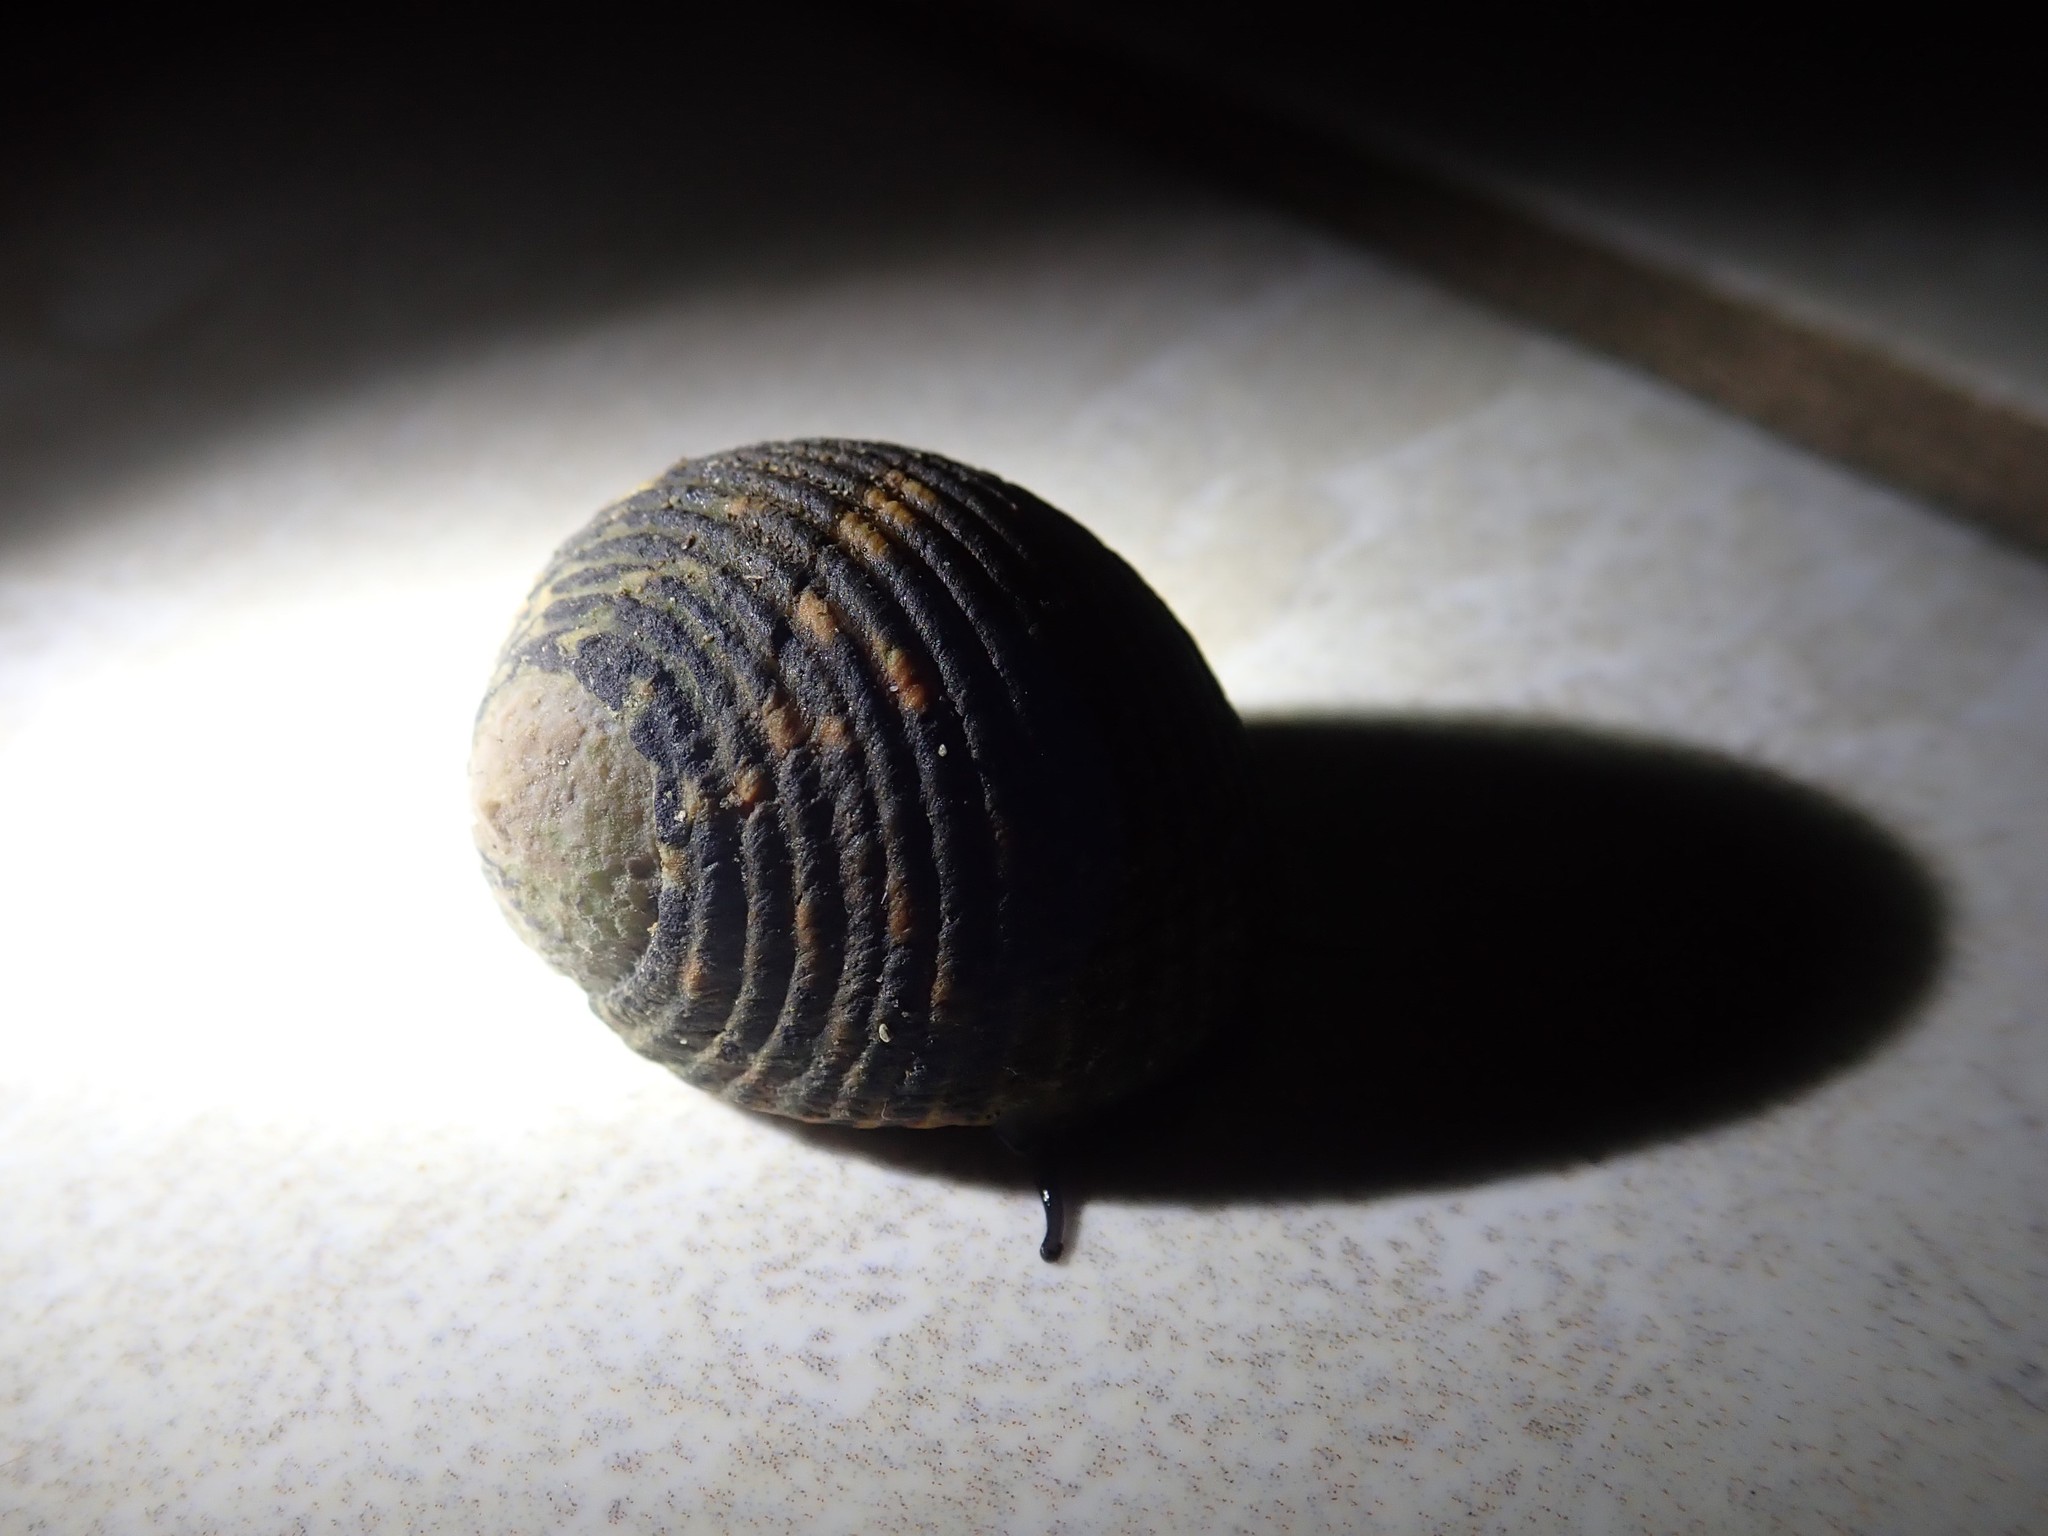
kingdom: Animalia
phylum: Mollusca
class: Gastropoda
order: Cycloneritida
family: Neritidae
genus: Nerita
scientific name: Nerita scabricosta
